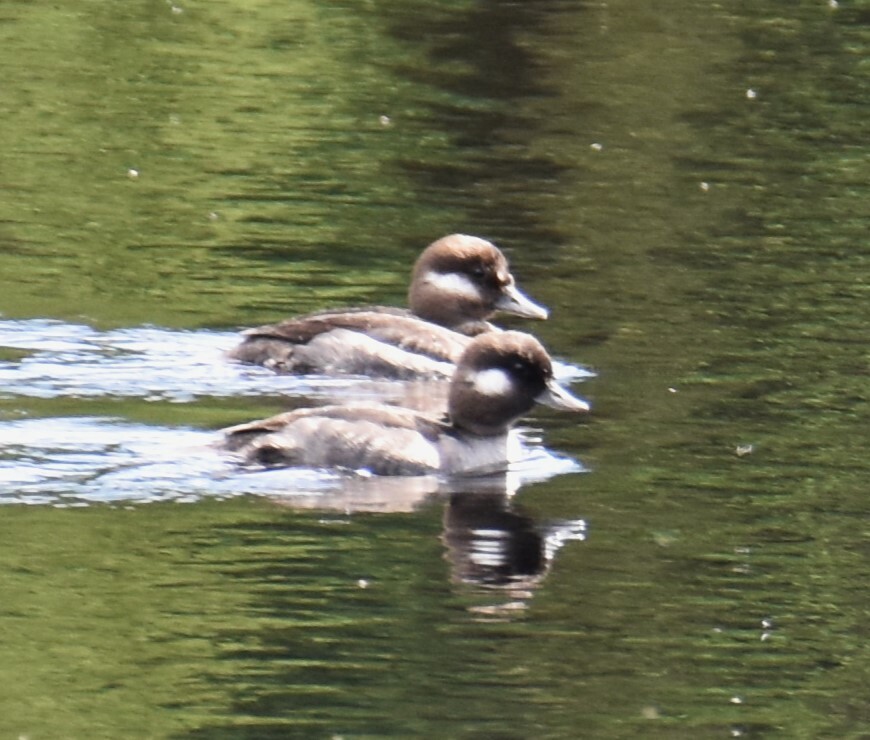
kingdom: Animalia
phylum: Chordata
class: Aves
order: Anseriformes
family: Anatidae
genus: Bucephala
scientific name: Bucephala albeola
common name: Bufflehead
